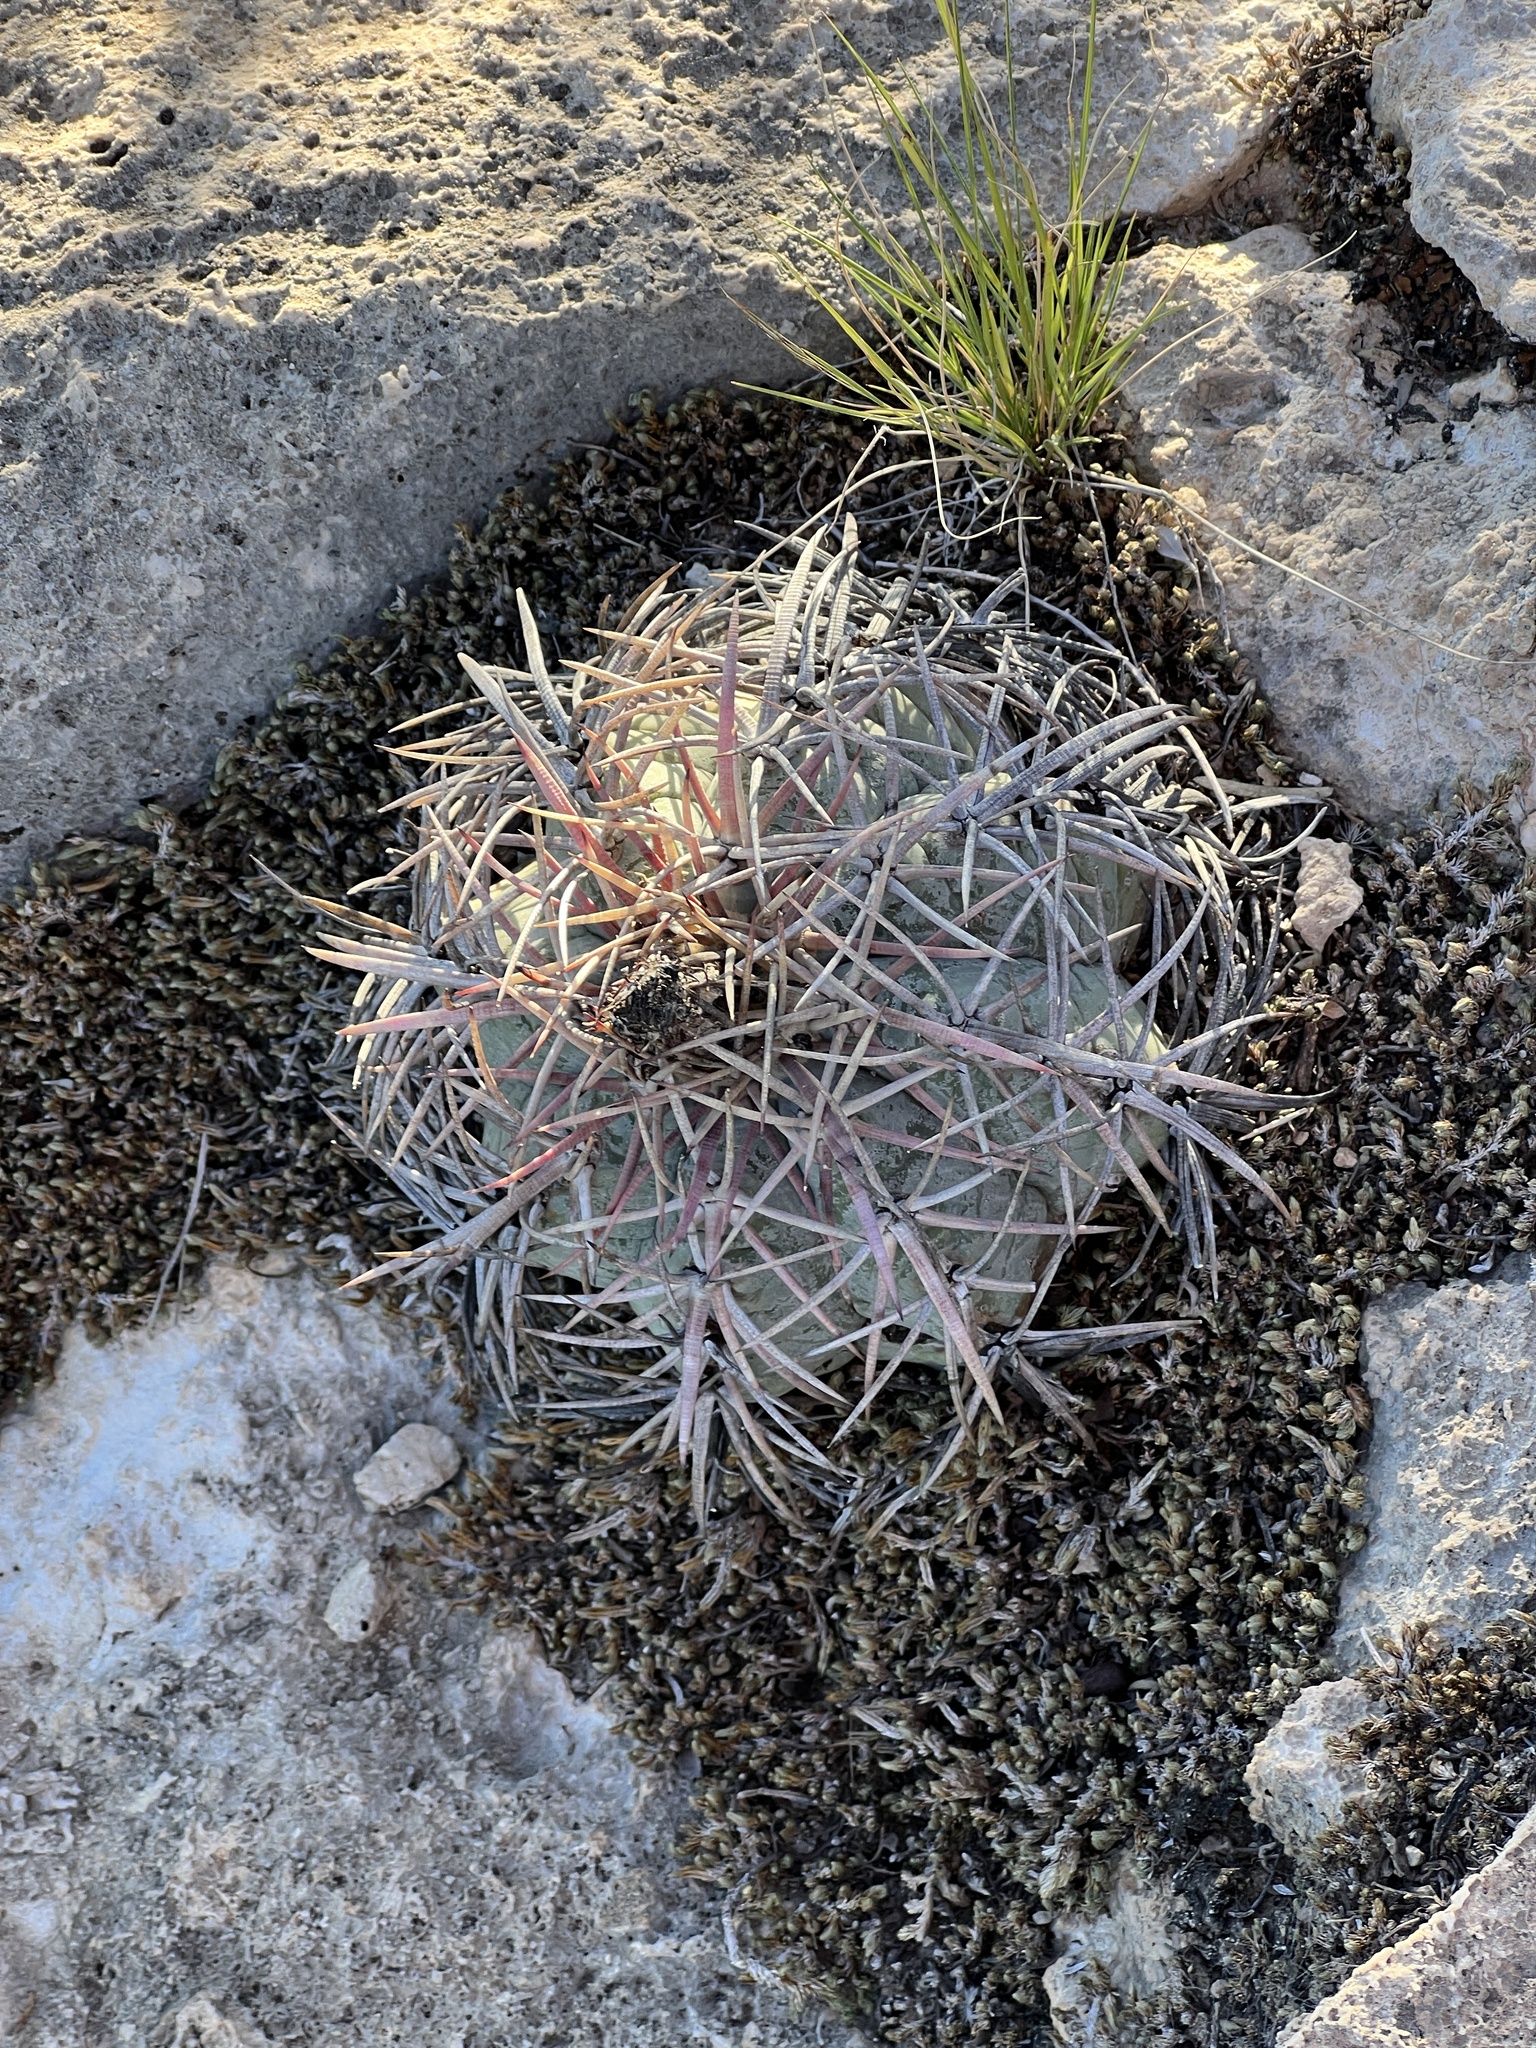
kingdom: Plantae
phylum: Tracheophyta
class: Magnoliopsida
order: Caryophyllales
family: Cactaceae
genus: Echinocactus
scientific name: Echinocactus horizonthalonius
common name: Devilshead
